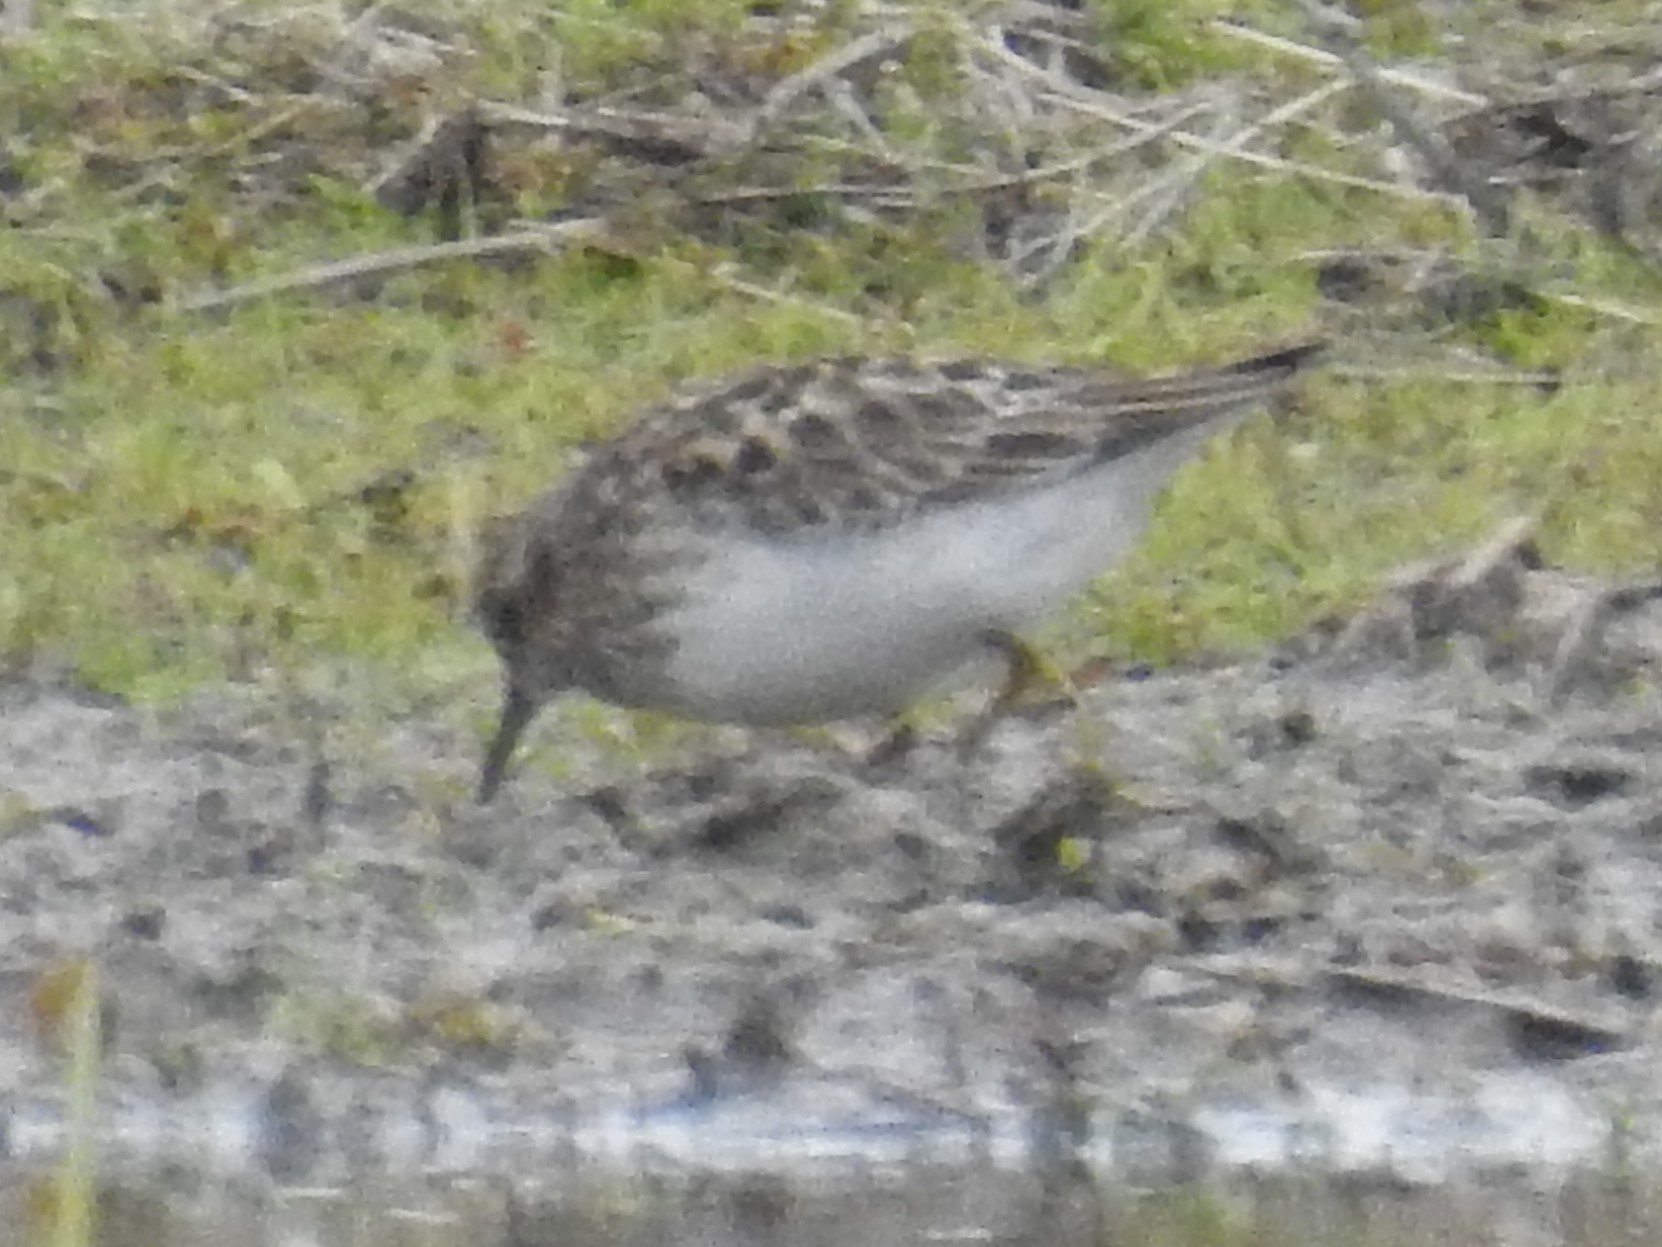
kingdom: Animalia
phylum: Chordata
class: Aves
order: Charadriiformes
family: Scolopacidae
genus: Calidris
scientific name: Calidris minutilla
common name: Least sandpiper
